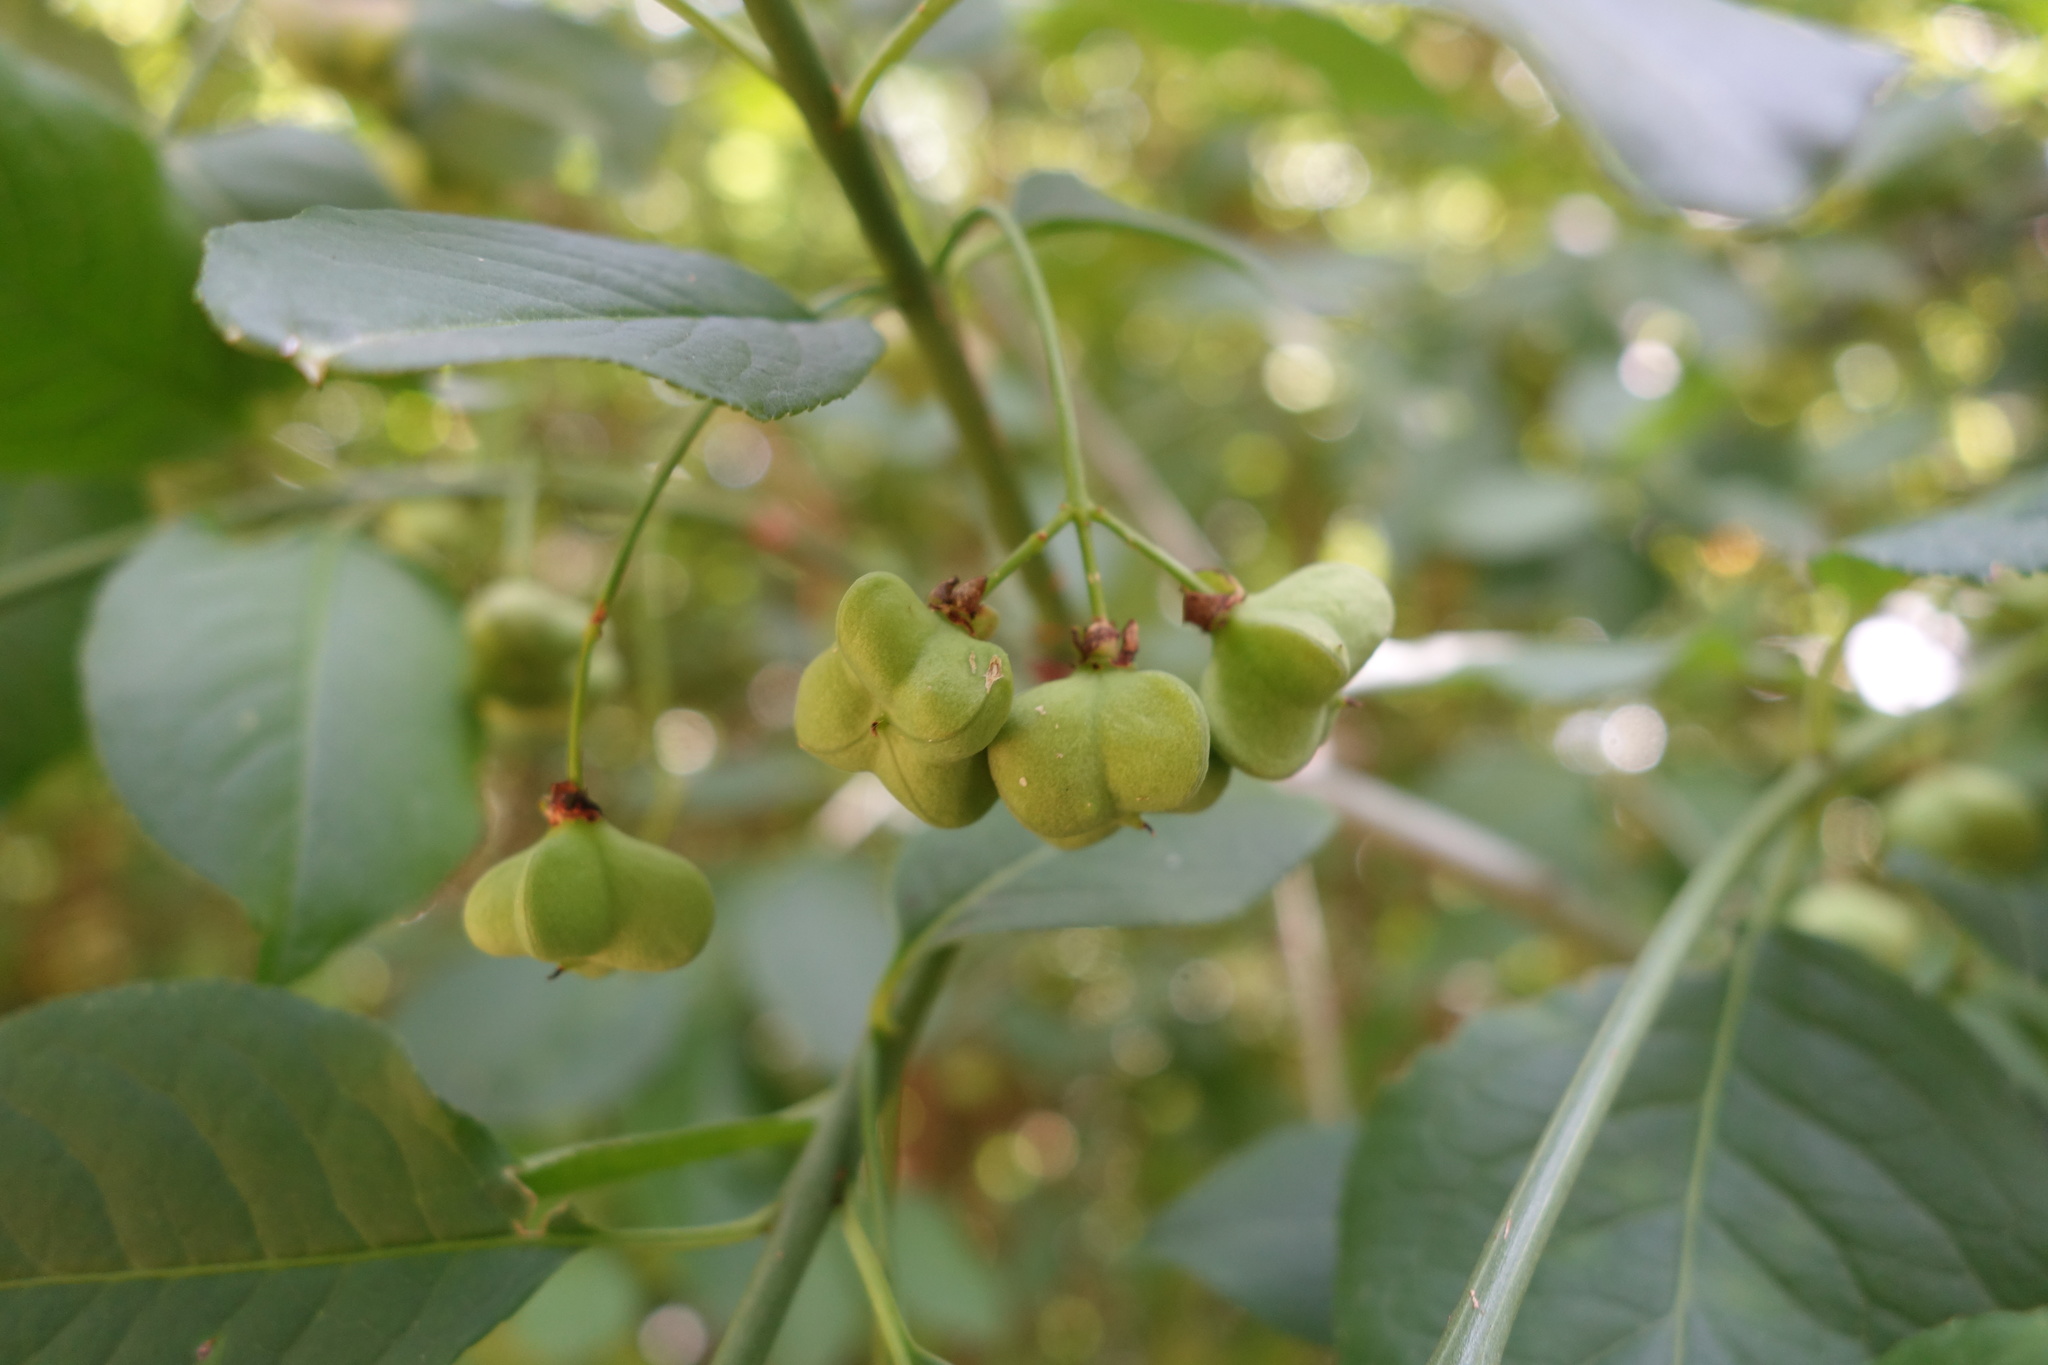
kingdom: Plantae
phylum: Tracheophyta
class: Magnoliopsida
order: Celastrales
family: Celastraceae
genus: Euonymus
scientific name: Euonymus europaeus
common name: Spindle
